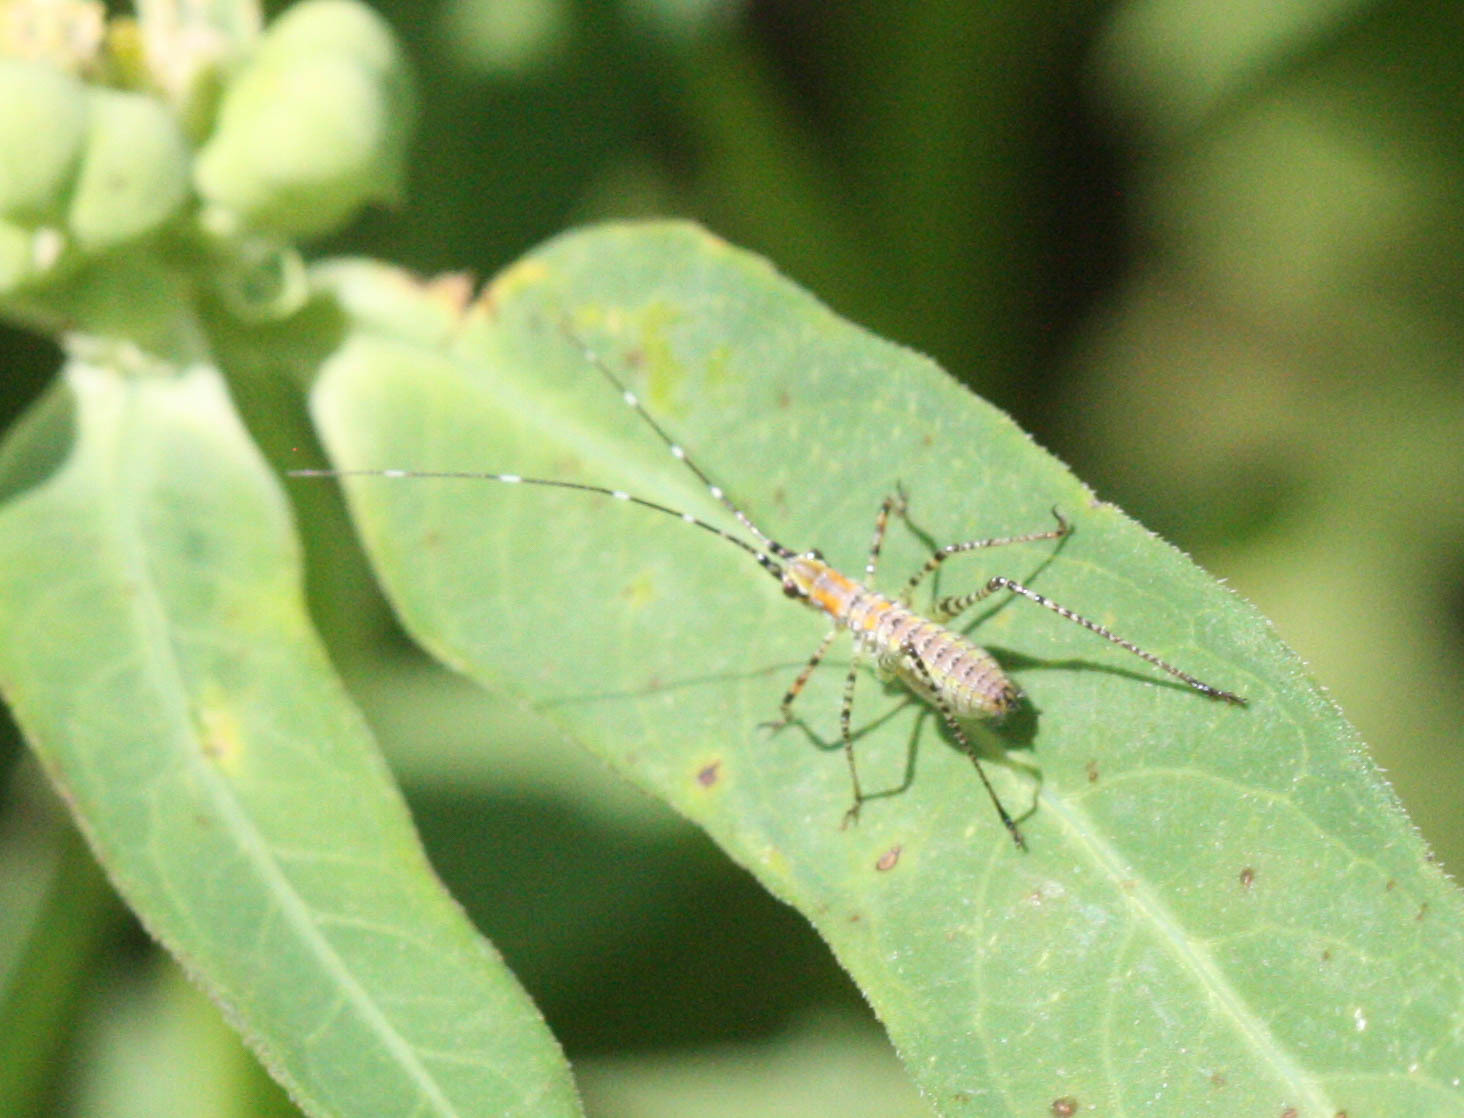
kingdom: Animalia
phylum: Arthropoda
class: Insecta
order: Orthoptera
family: Tettigoniidae
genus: Scudderia
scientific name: Scudderia mexicana
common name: Mexican bush katydid
